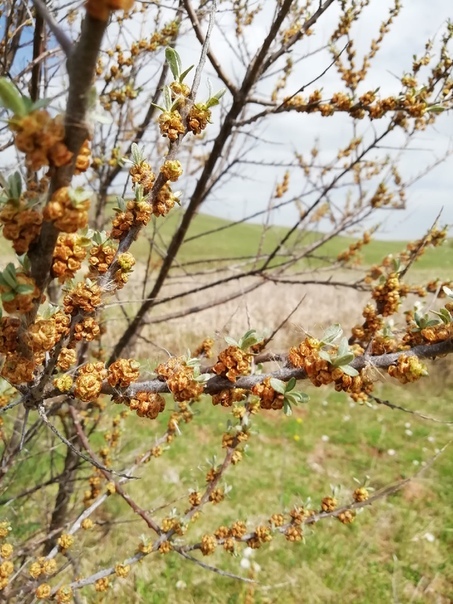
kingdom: Plantae
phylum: Tracheophyta
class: Magnoliopsida
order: Rosales
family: Elaeagnaceae
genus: Hippophae
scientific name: Hippophae rhamnoides
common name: Sea-buckthorn
